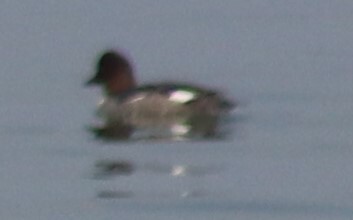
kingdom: Animalia
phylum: Chordata
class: Aves
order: Anseriformes
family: Anatidae
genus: Bucephala
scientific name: Bucephala clangula
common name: Common goldeneye
